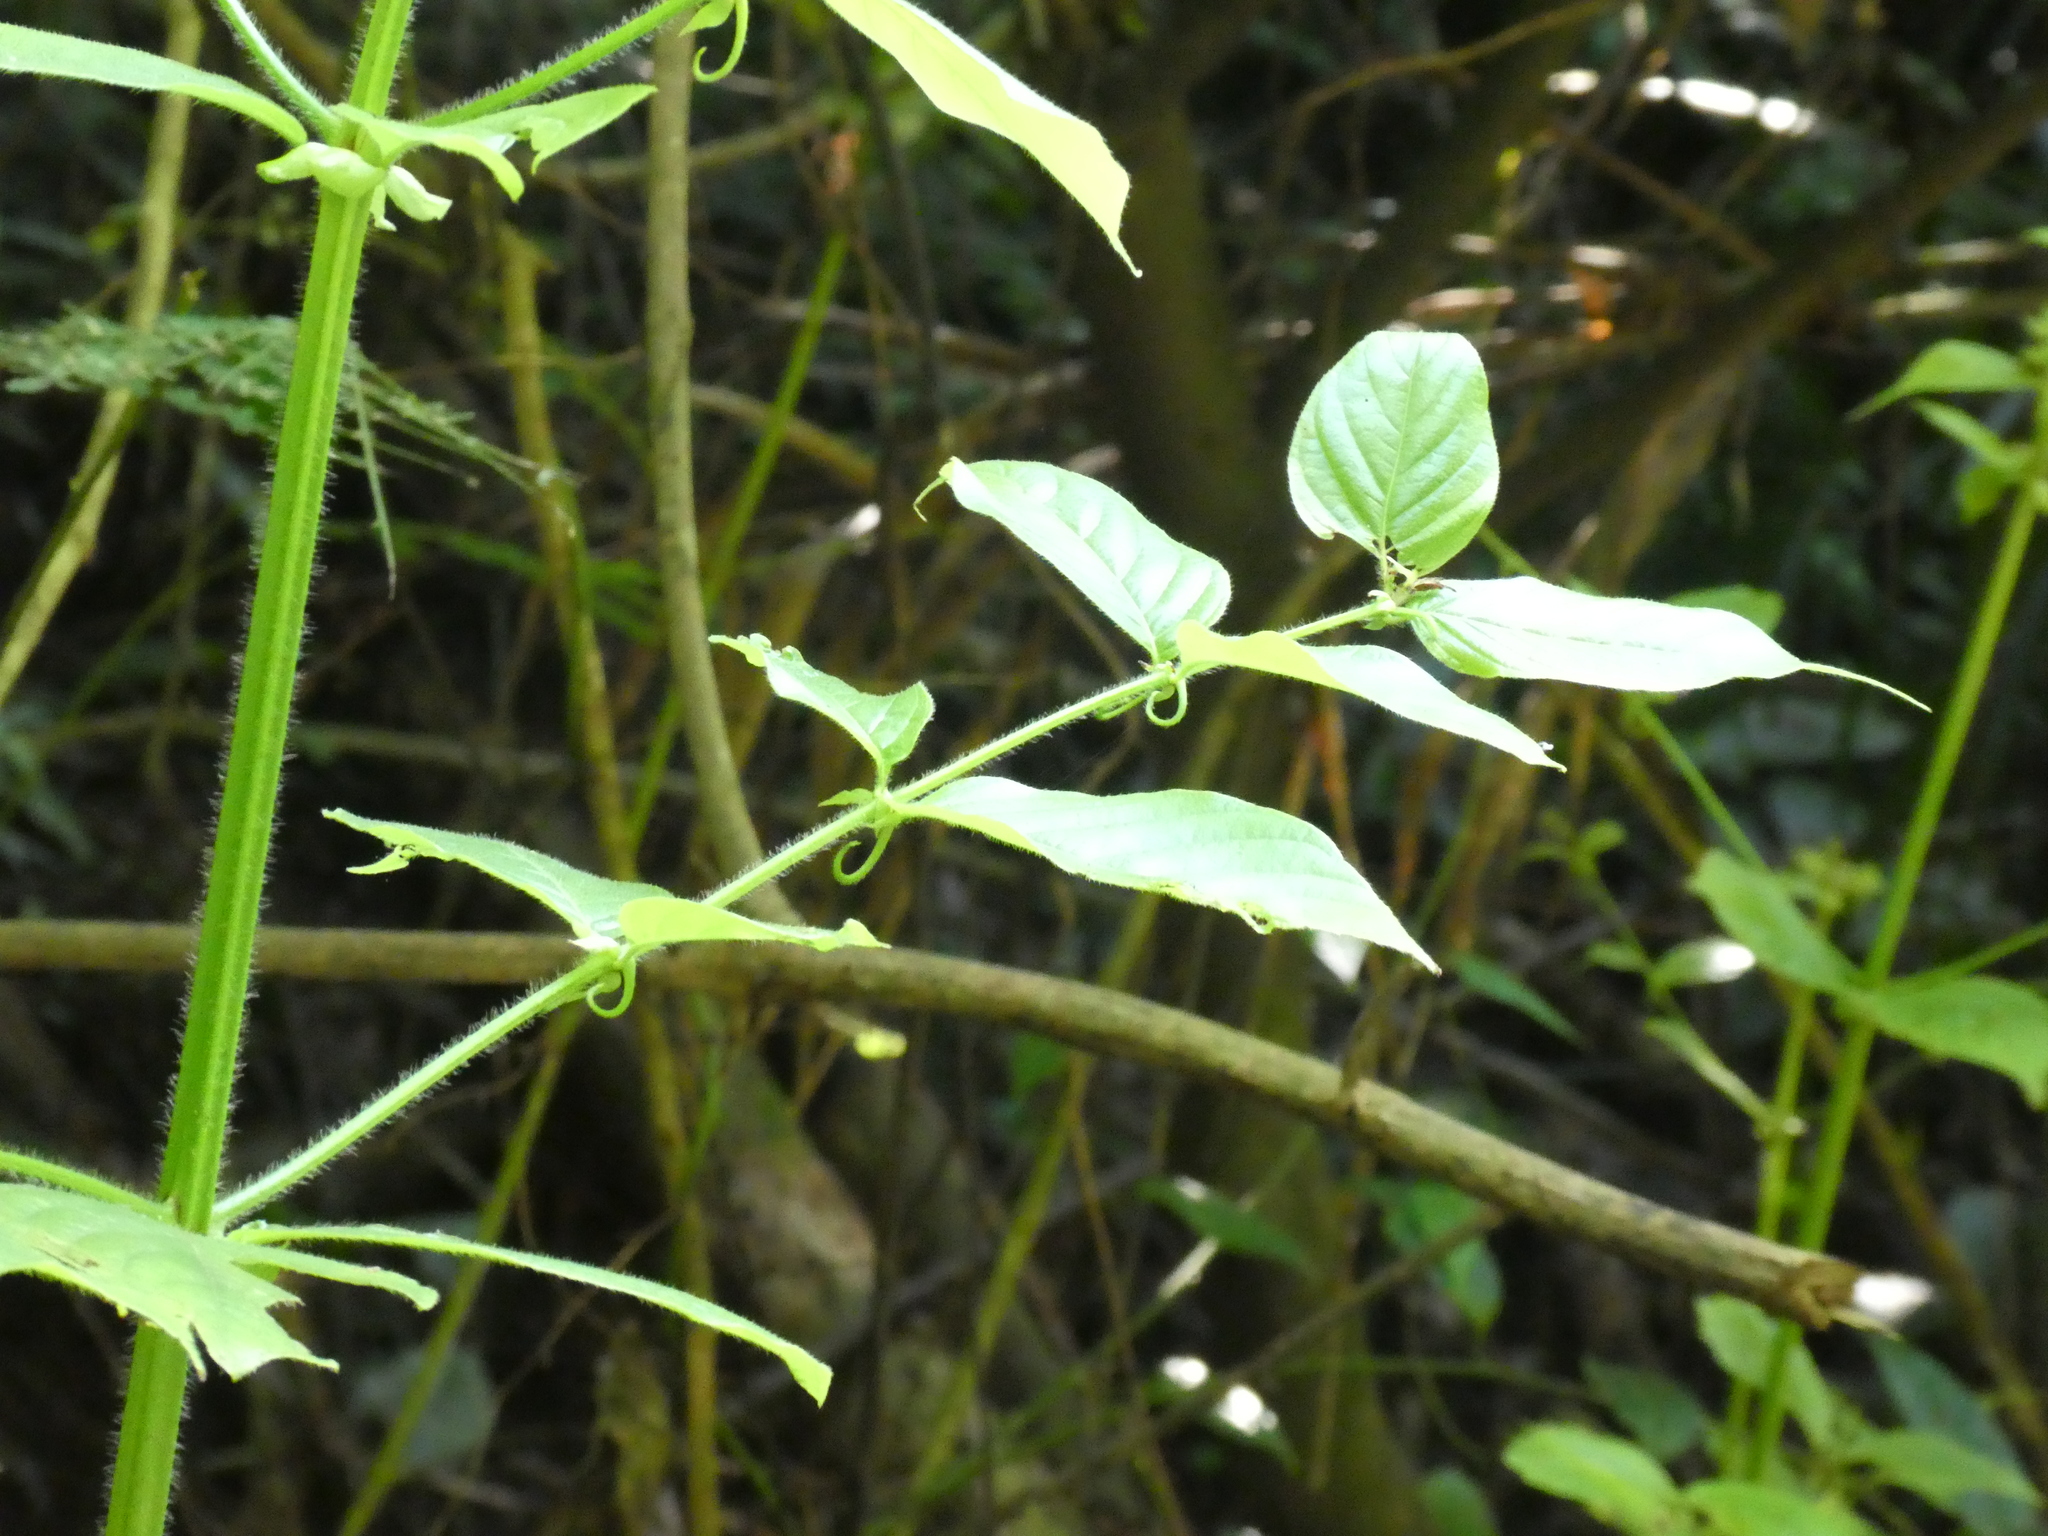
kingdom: Plantae
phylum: Tracheophyta
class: Magnoliopsida
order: Gentianales
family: Rubiaceae
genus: Uncaria
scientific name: Uncaria hirsuta
